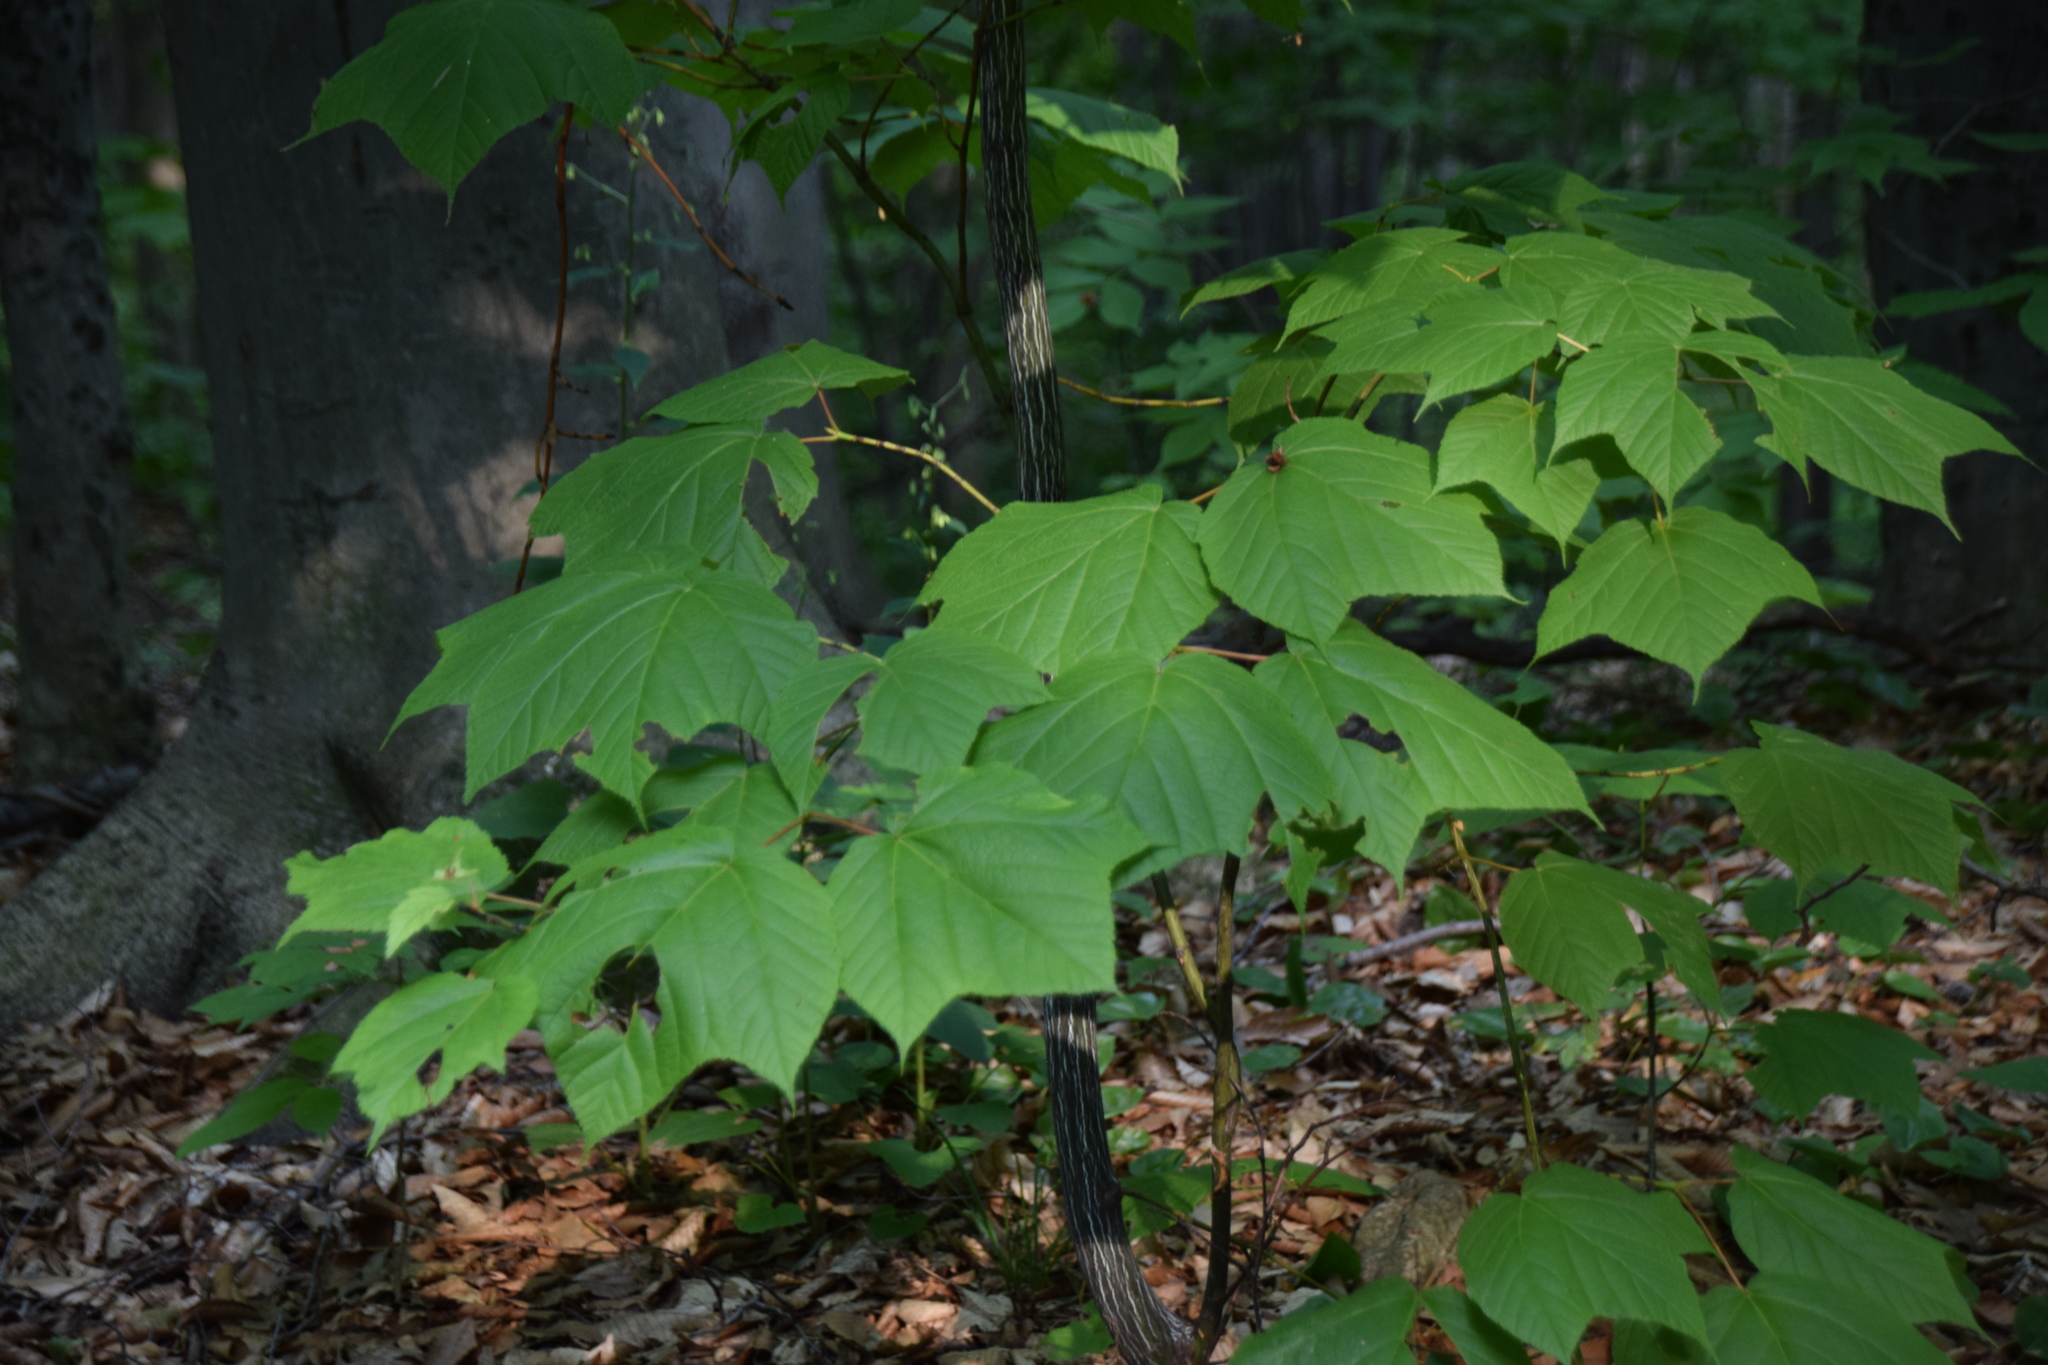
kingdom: Plantae
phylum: Tracheophyta
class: Magnoliopsida
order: Sapindales
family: Sapindaceae
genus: Acer
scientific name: Acer pensylvanicum
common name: Moosewood
